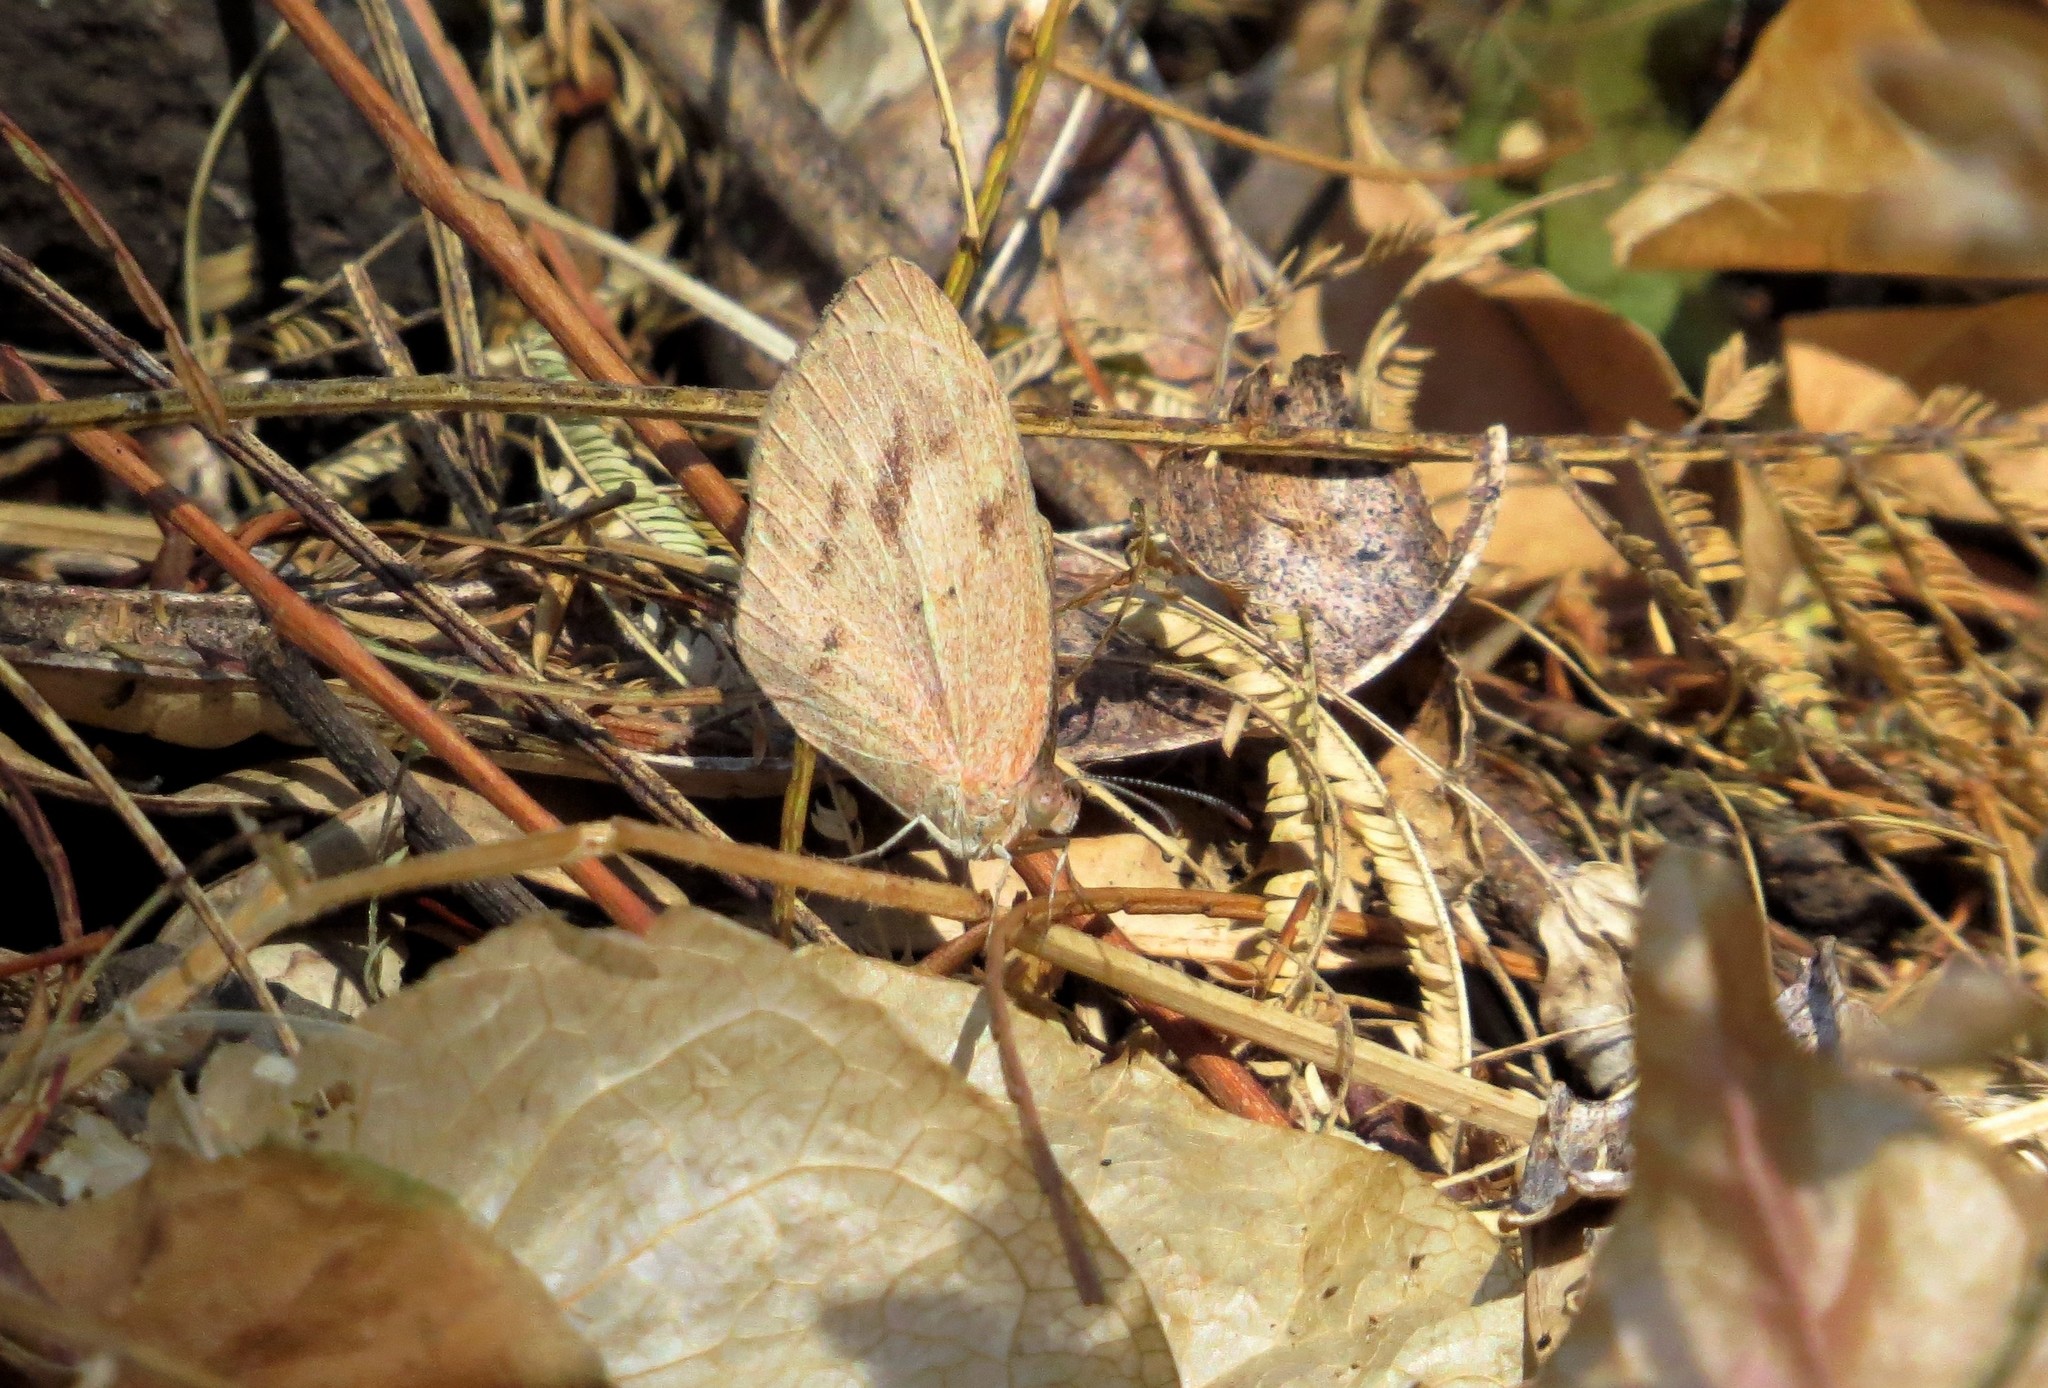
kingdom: Animalia
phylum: Arthropoda
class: Insecta
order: Lepidoptera
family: Pieridae
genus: Eurema
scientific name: Eurema daira
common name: Barred sulphur
